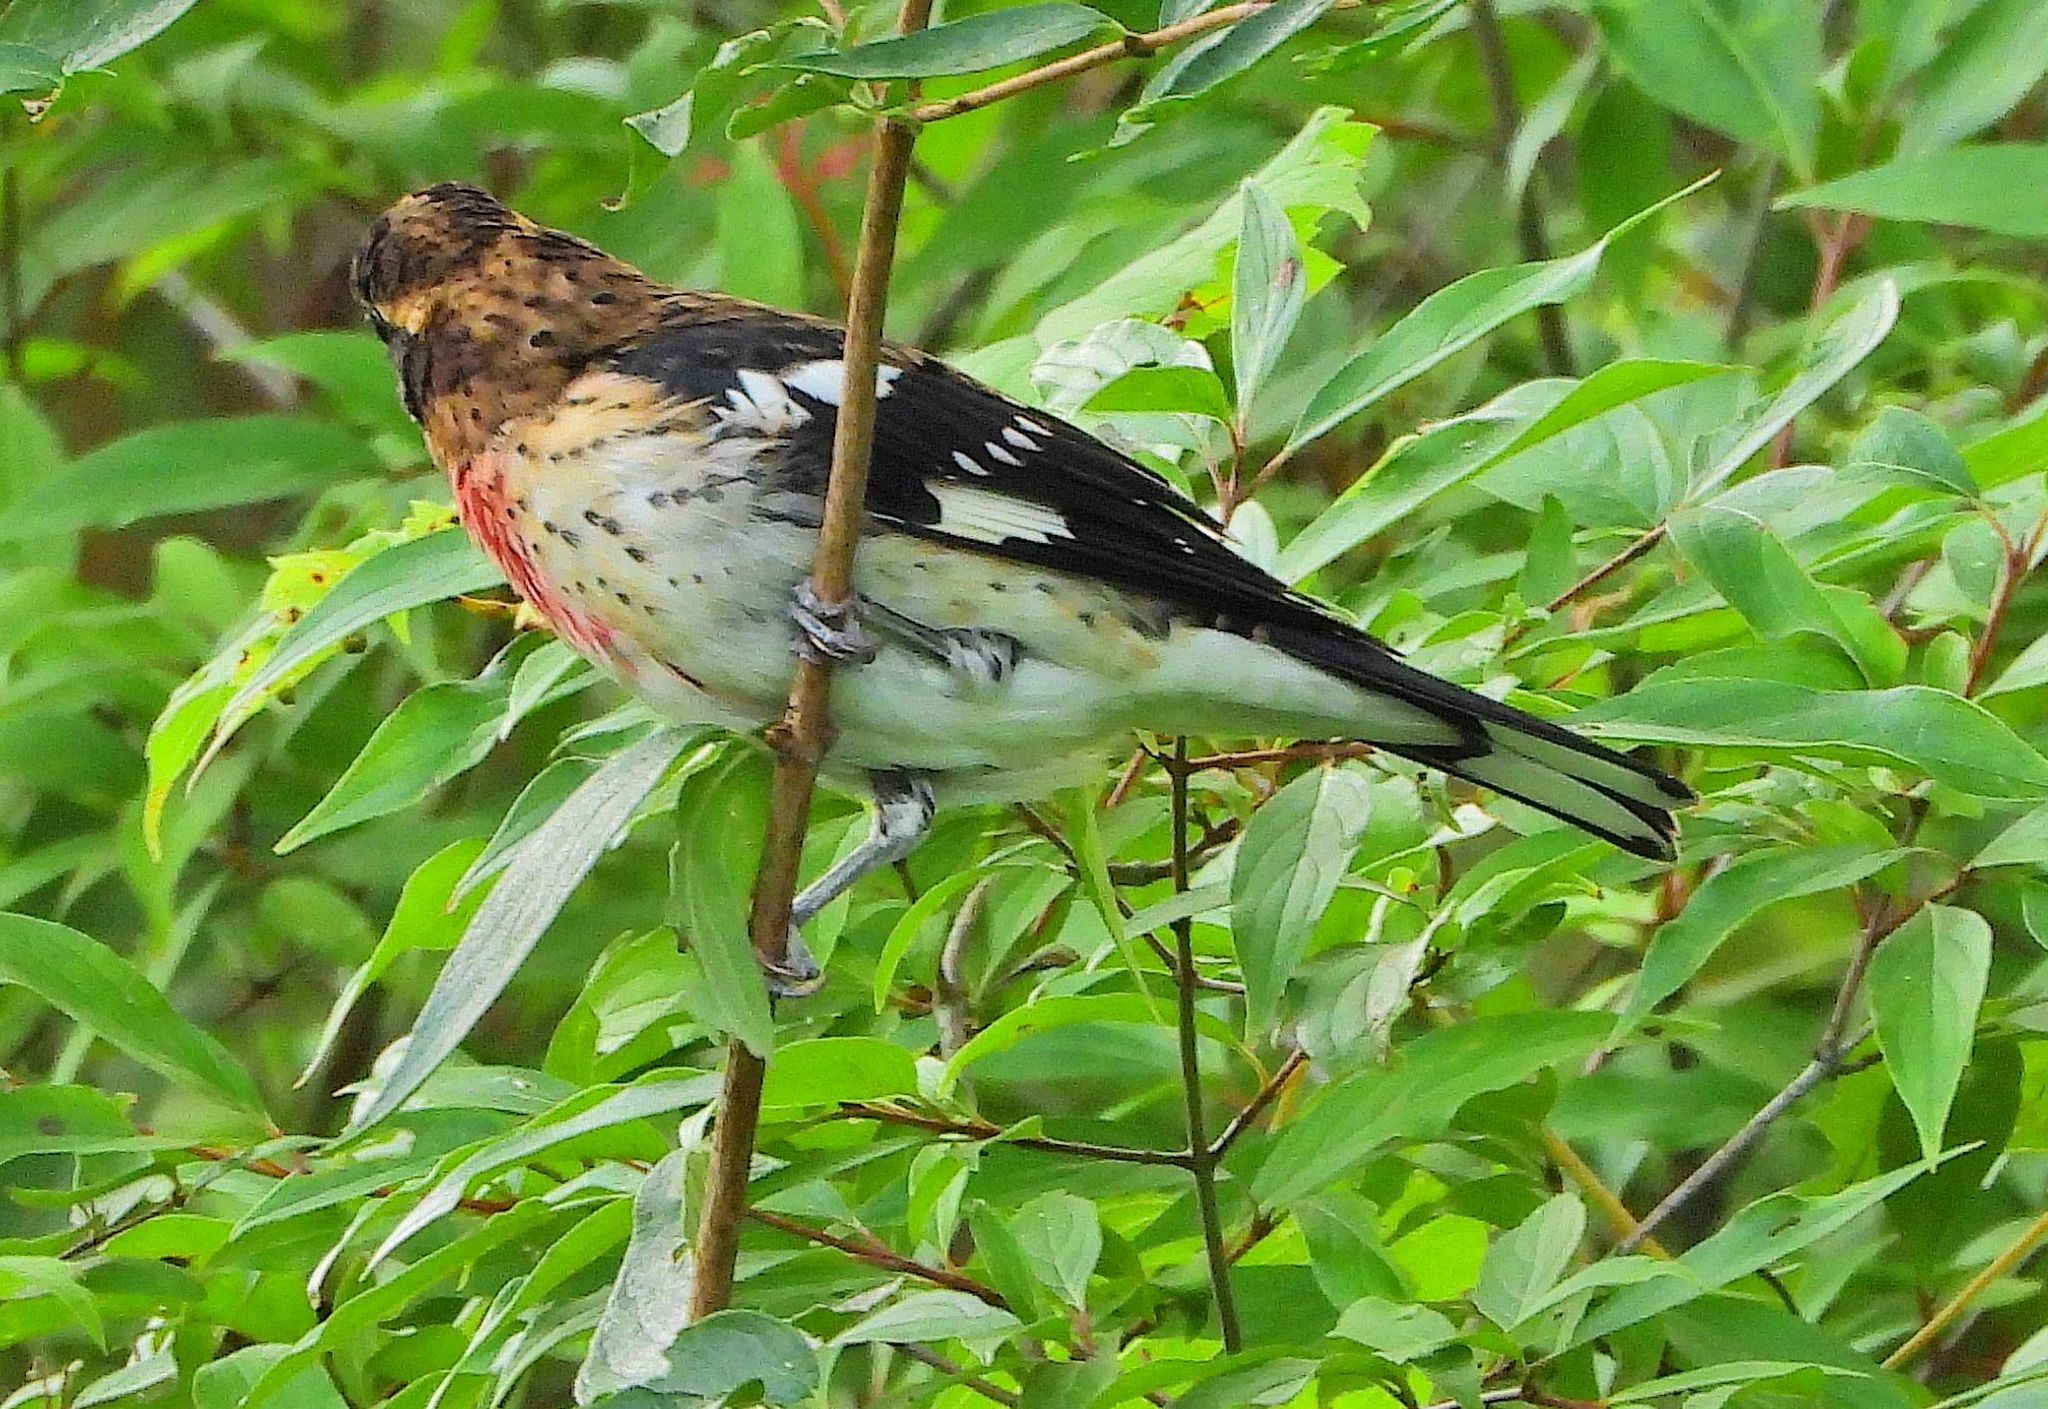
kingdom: Animalia
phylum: Chordata
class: Aves
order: Passeriformes
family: Cardinalidae
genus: Pheucticus
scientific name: Pheucticus ludovicianus
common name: Rose-breasted grosbeak
